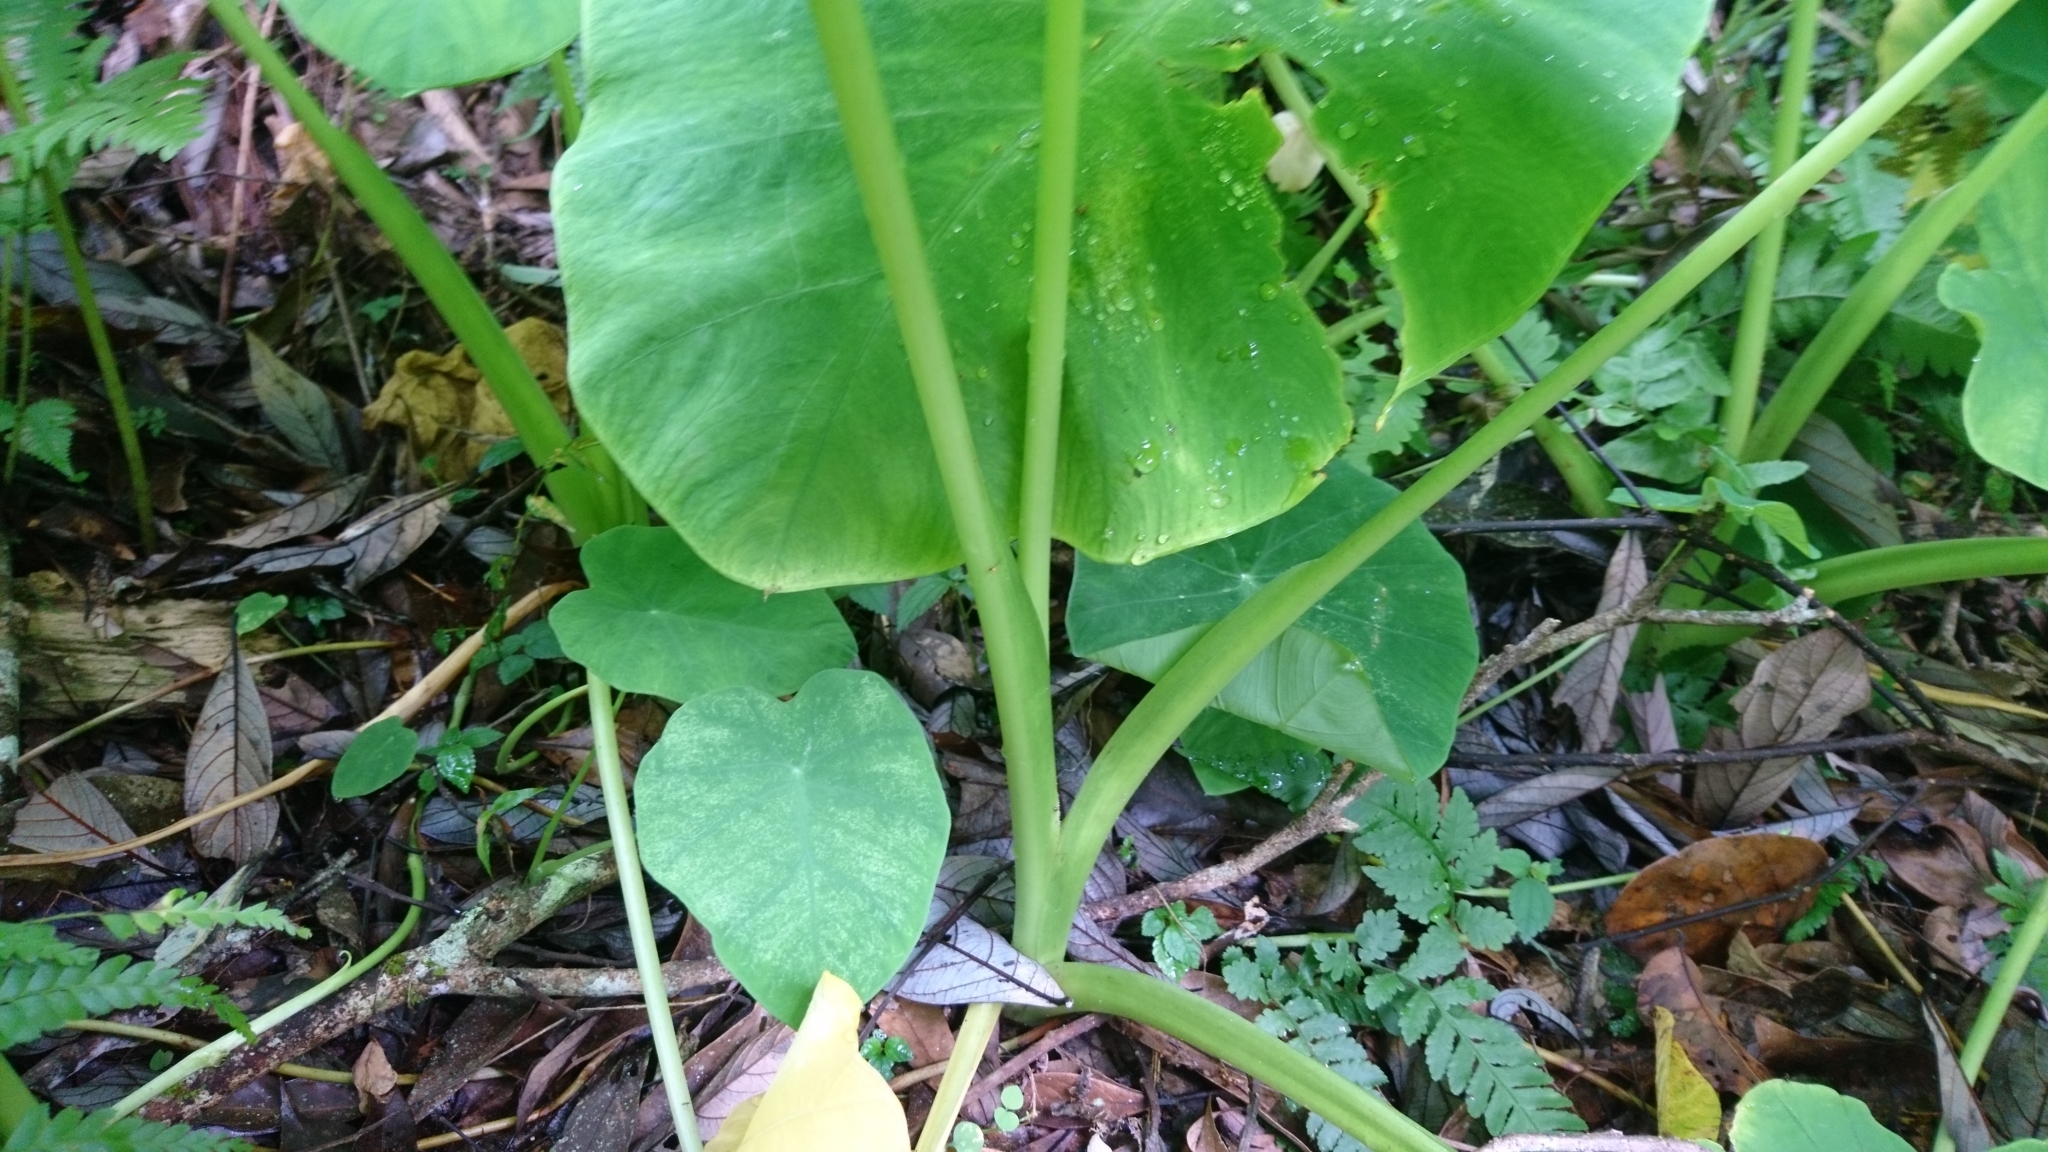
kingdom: Plantae
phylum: Tracheophyta
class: Liliopsida
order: Alismatales
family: Araceae
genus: Colocasia
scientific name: Colocasia esculenta
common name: Taro
